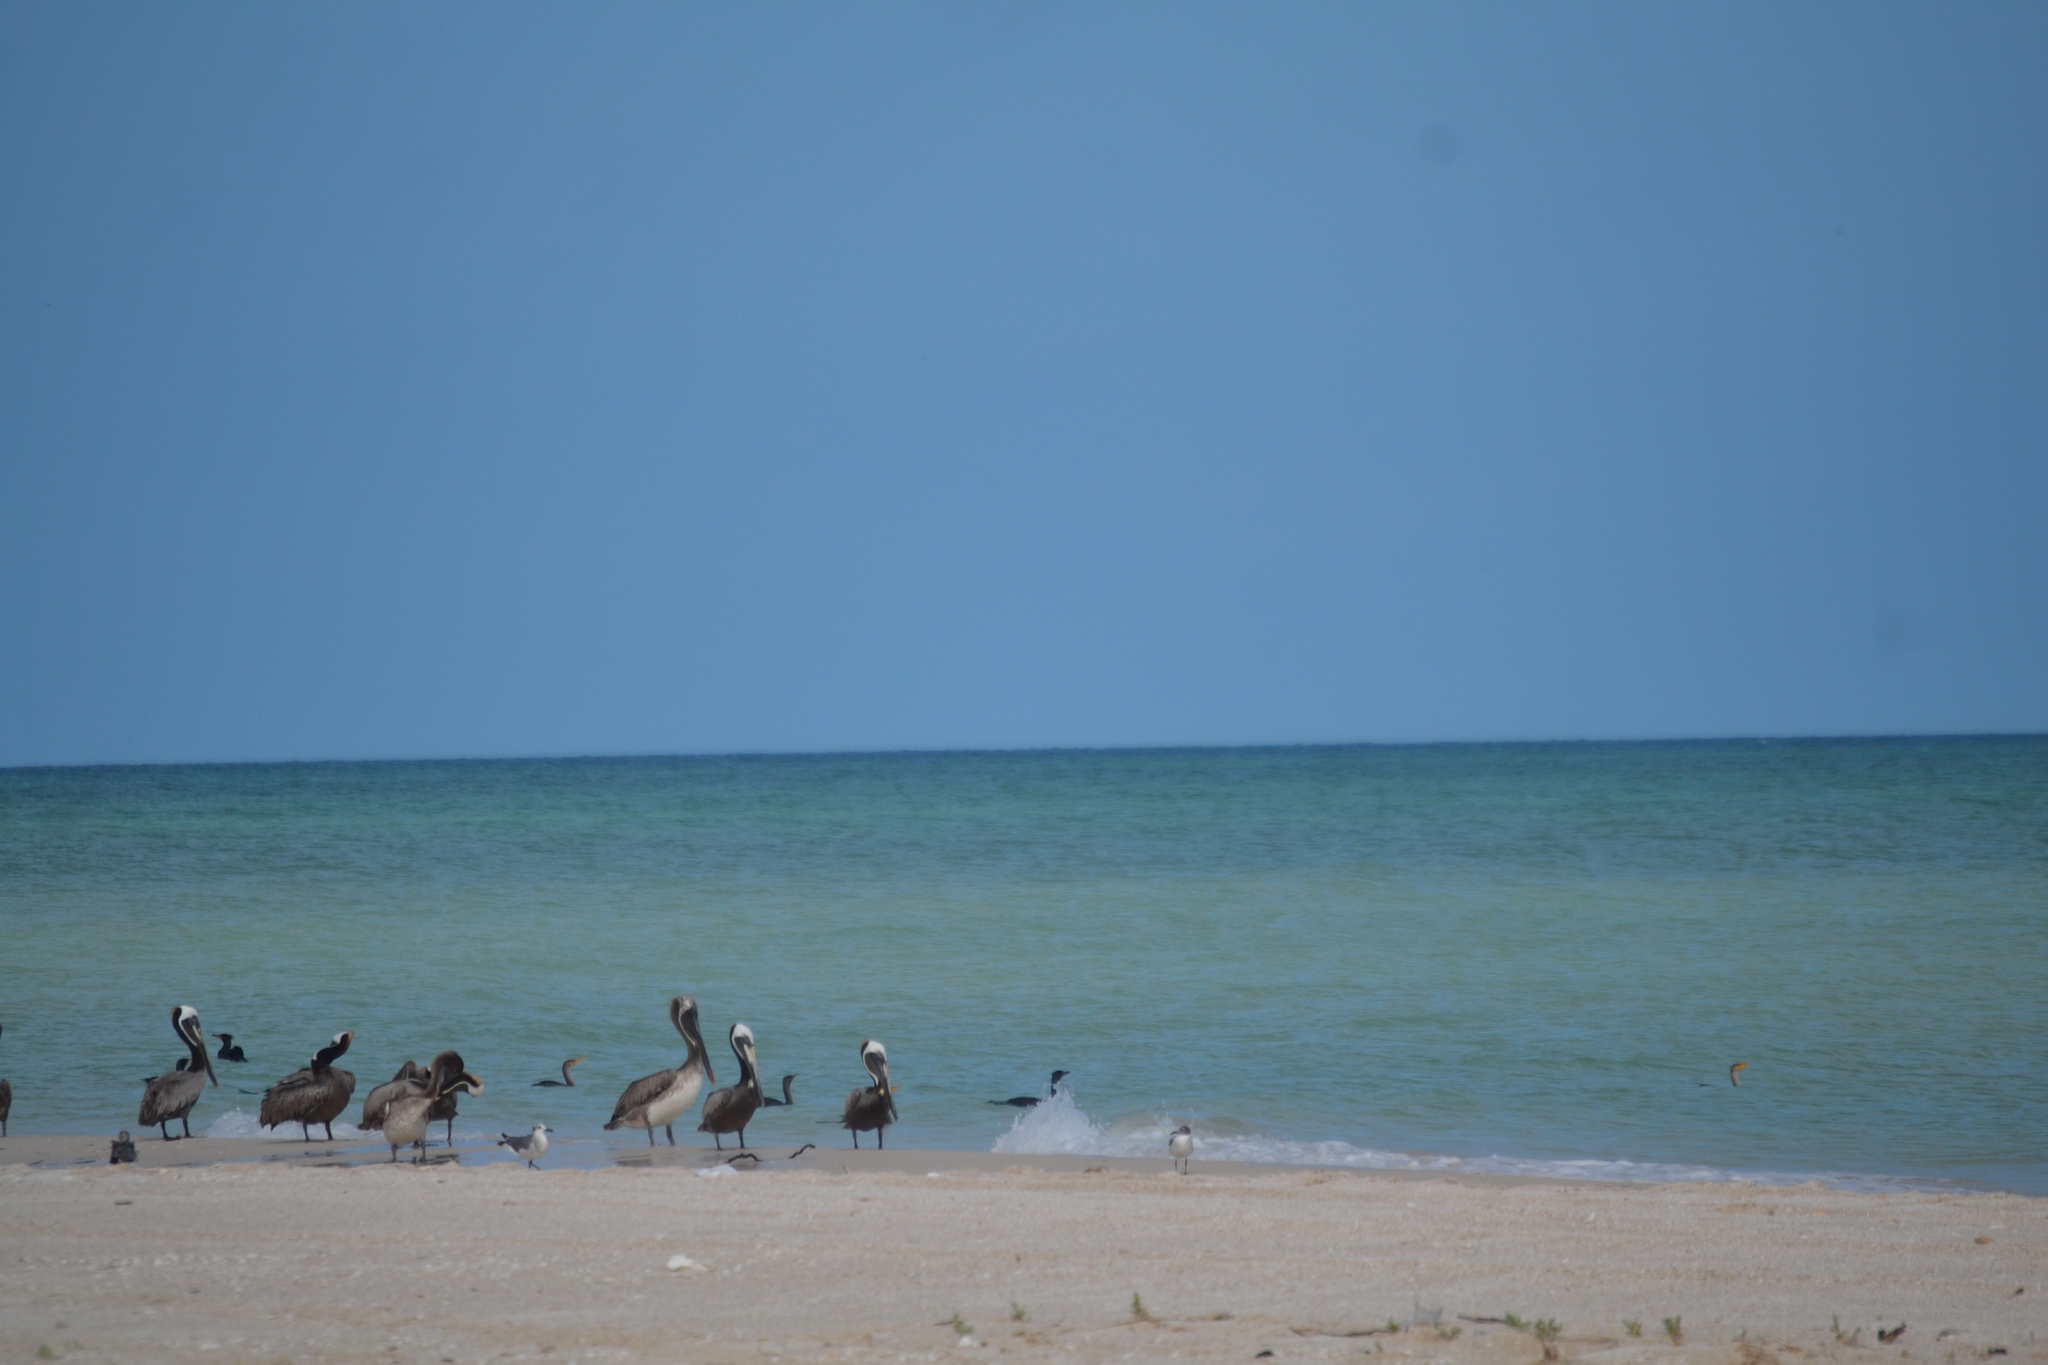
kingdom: Animalia
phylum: Chordata
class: Aves
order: Pelecaniformes
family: Pelecanidae
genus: Pelecanus
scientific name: Pelecanus occidentalis
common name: Brown pelican
